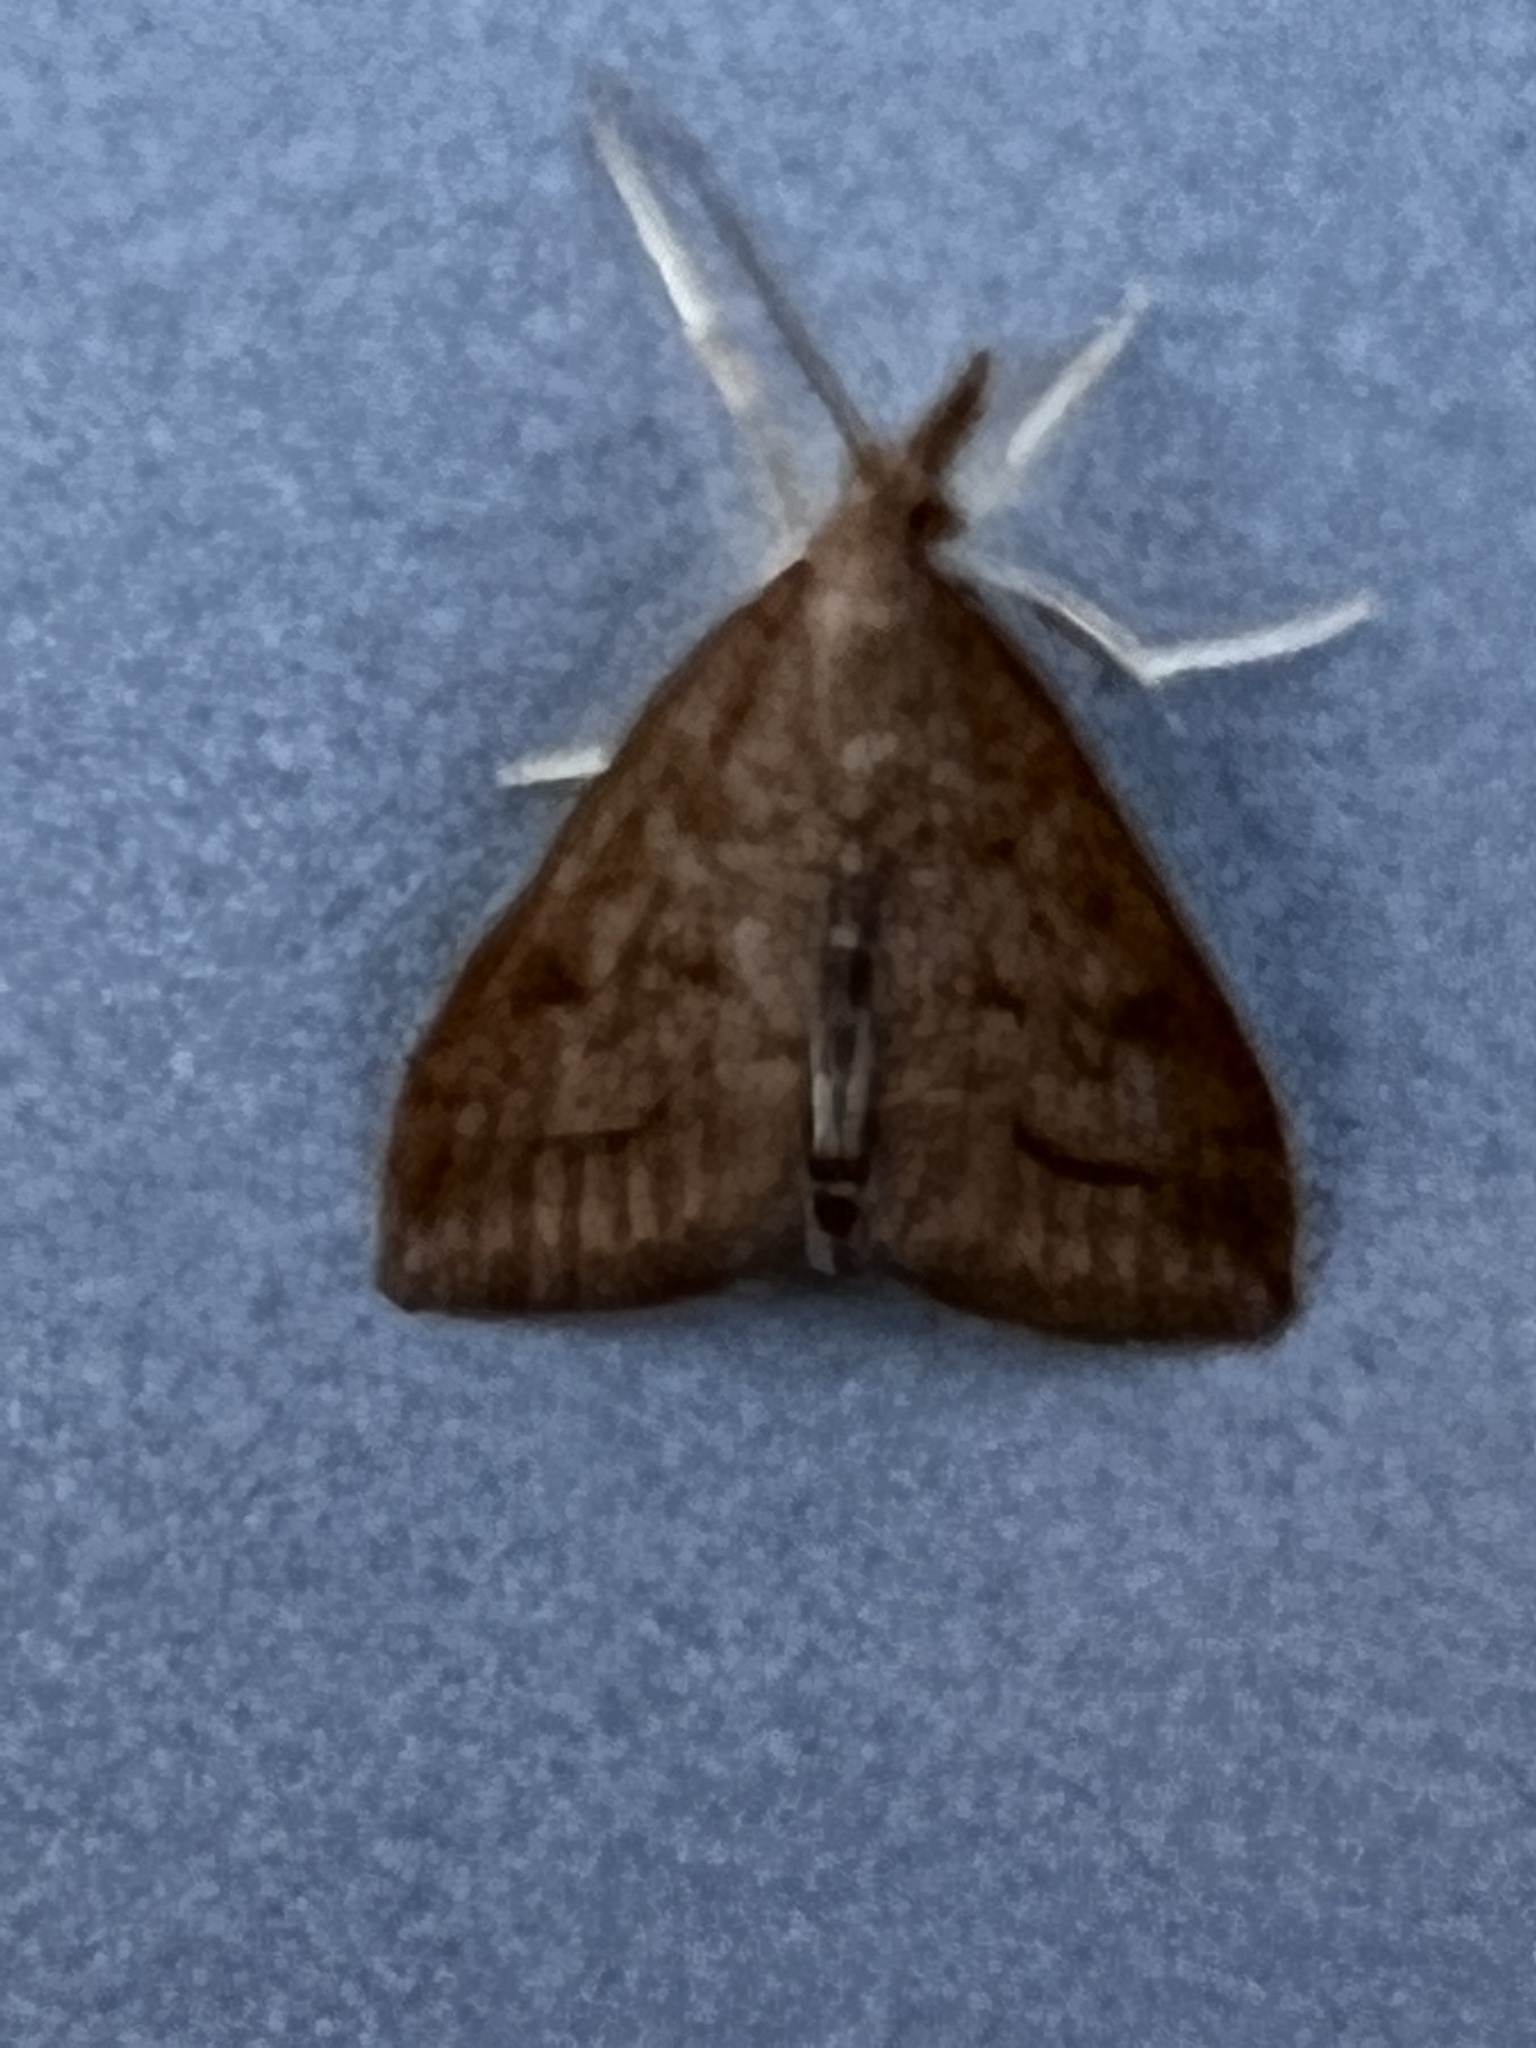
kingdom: Animalia
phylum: Arthropoda
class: Insecta
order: Lepidoptera
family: Crambidae
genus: Udea
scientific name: Udea rubigalis
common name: Celery leaftier moth
